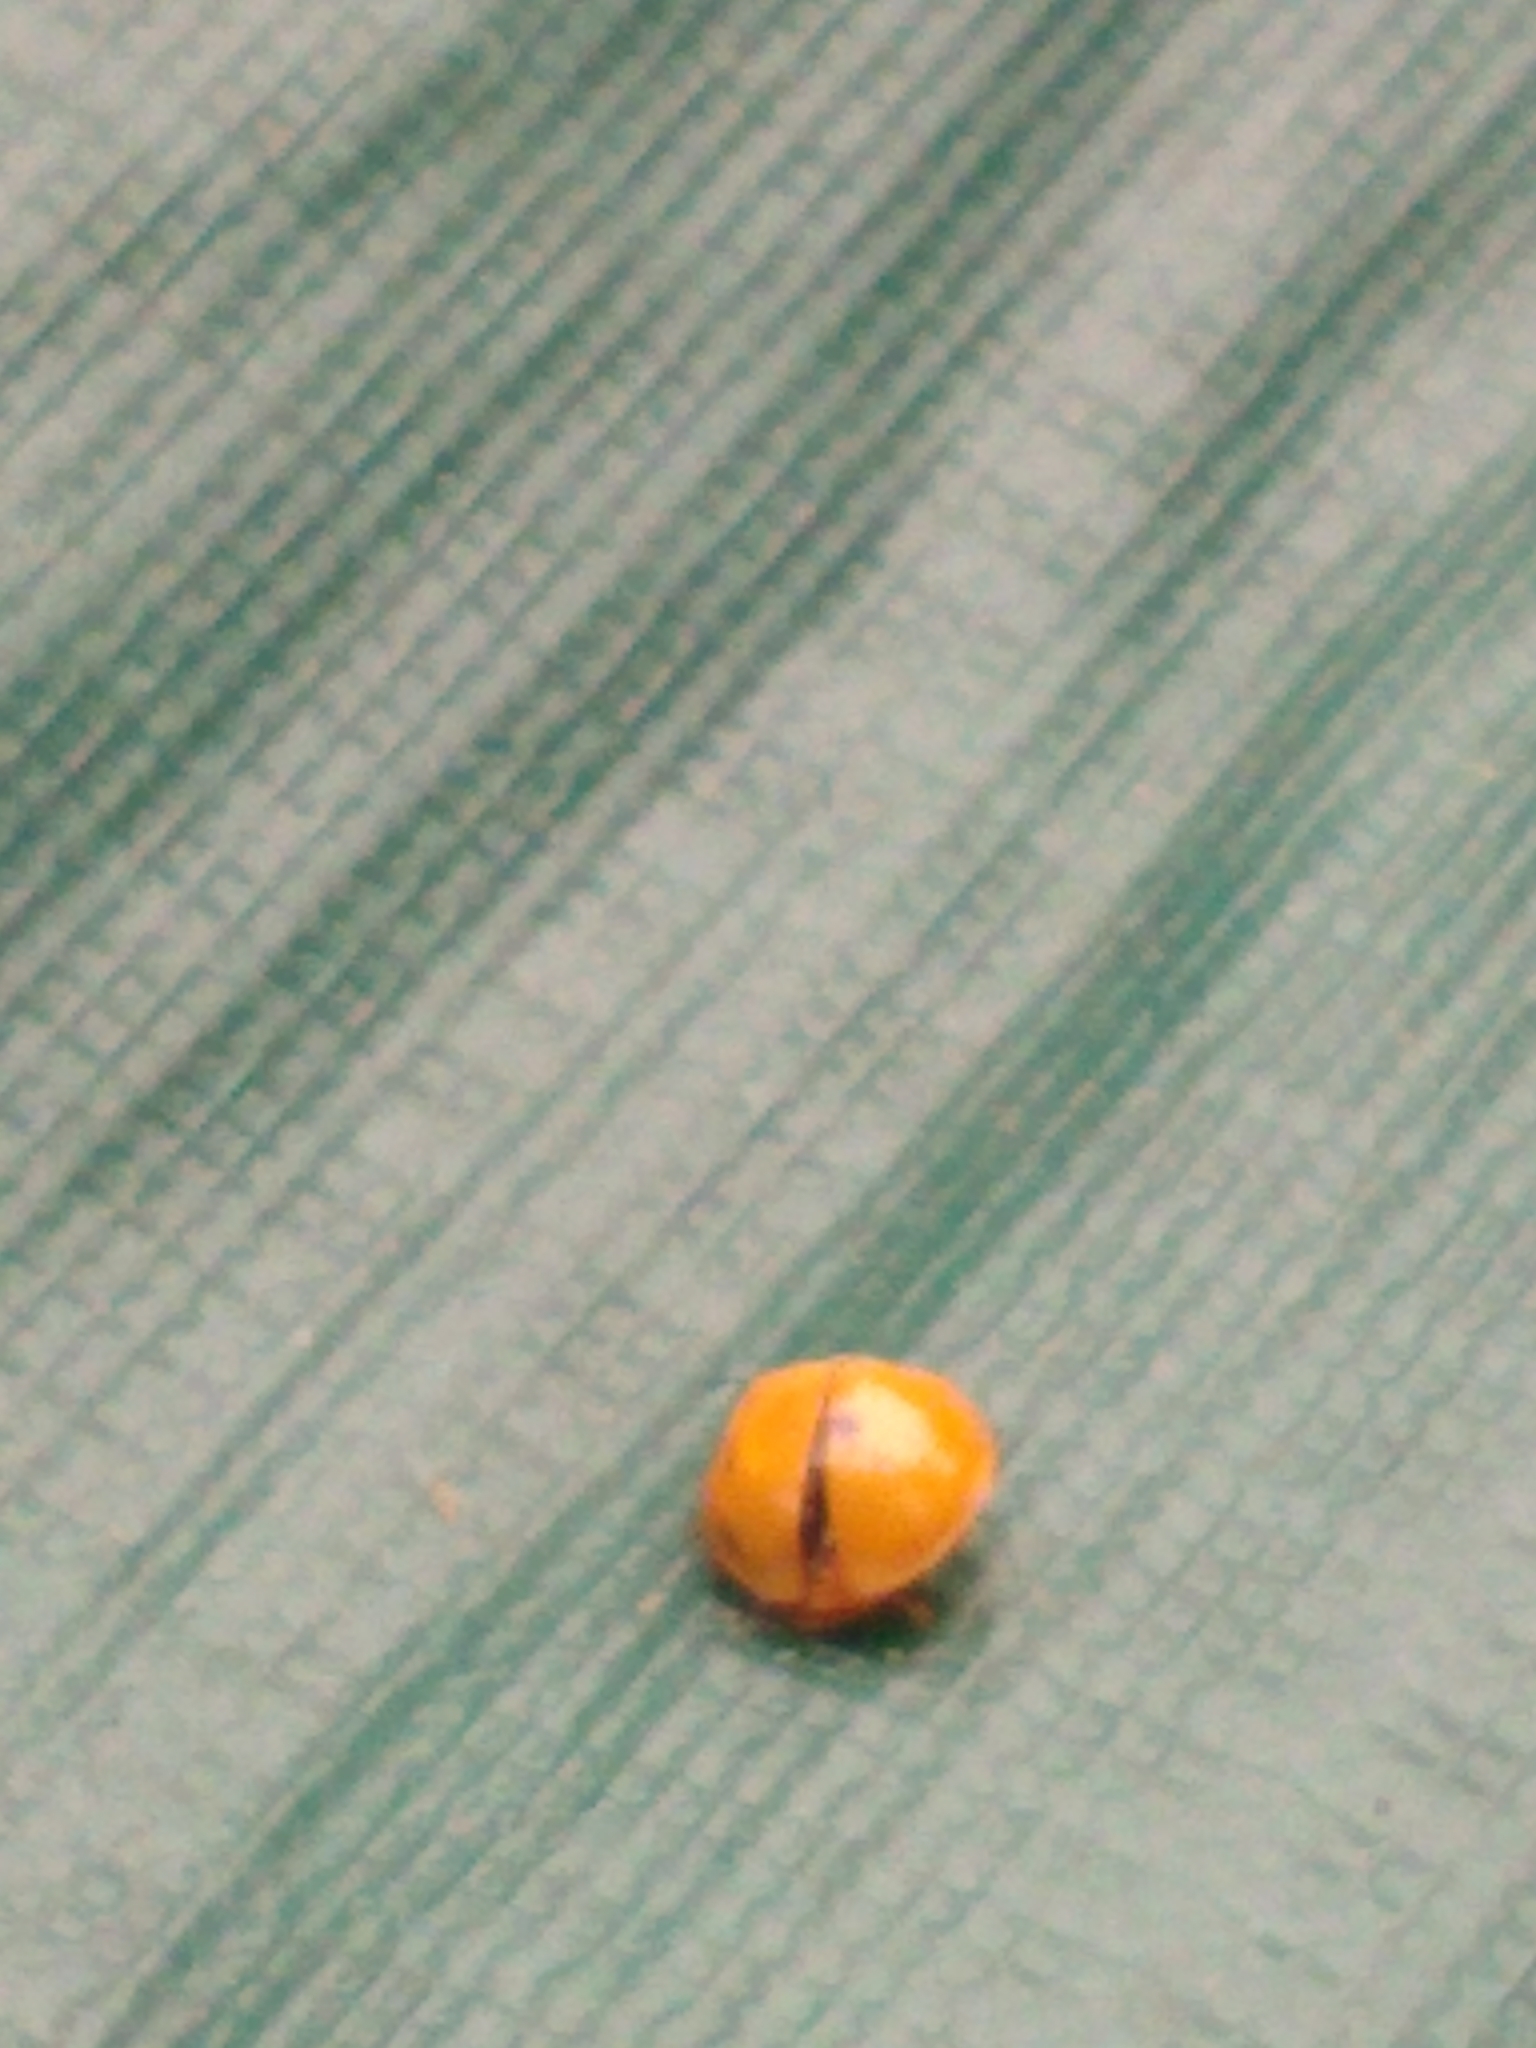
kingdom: Animalia
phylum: Arthropoda
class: Insecta
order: Coleoptera
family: Coccinellidae
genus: Harmonia
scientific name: Harmonia axyridis
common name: Harlequin ladybird
